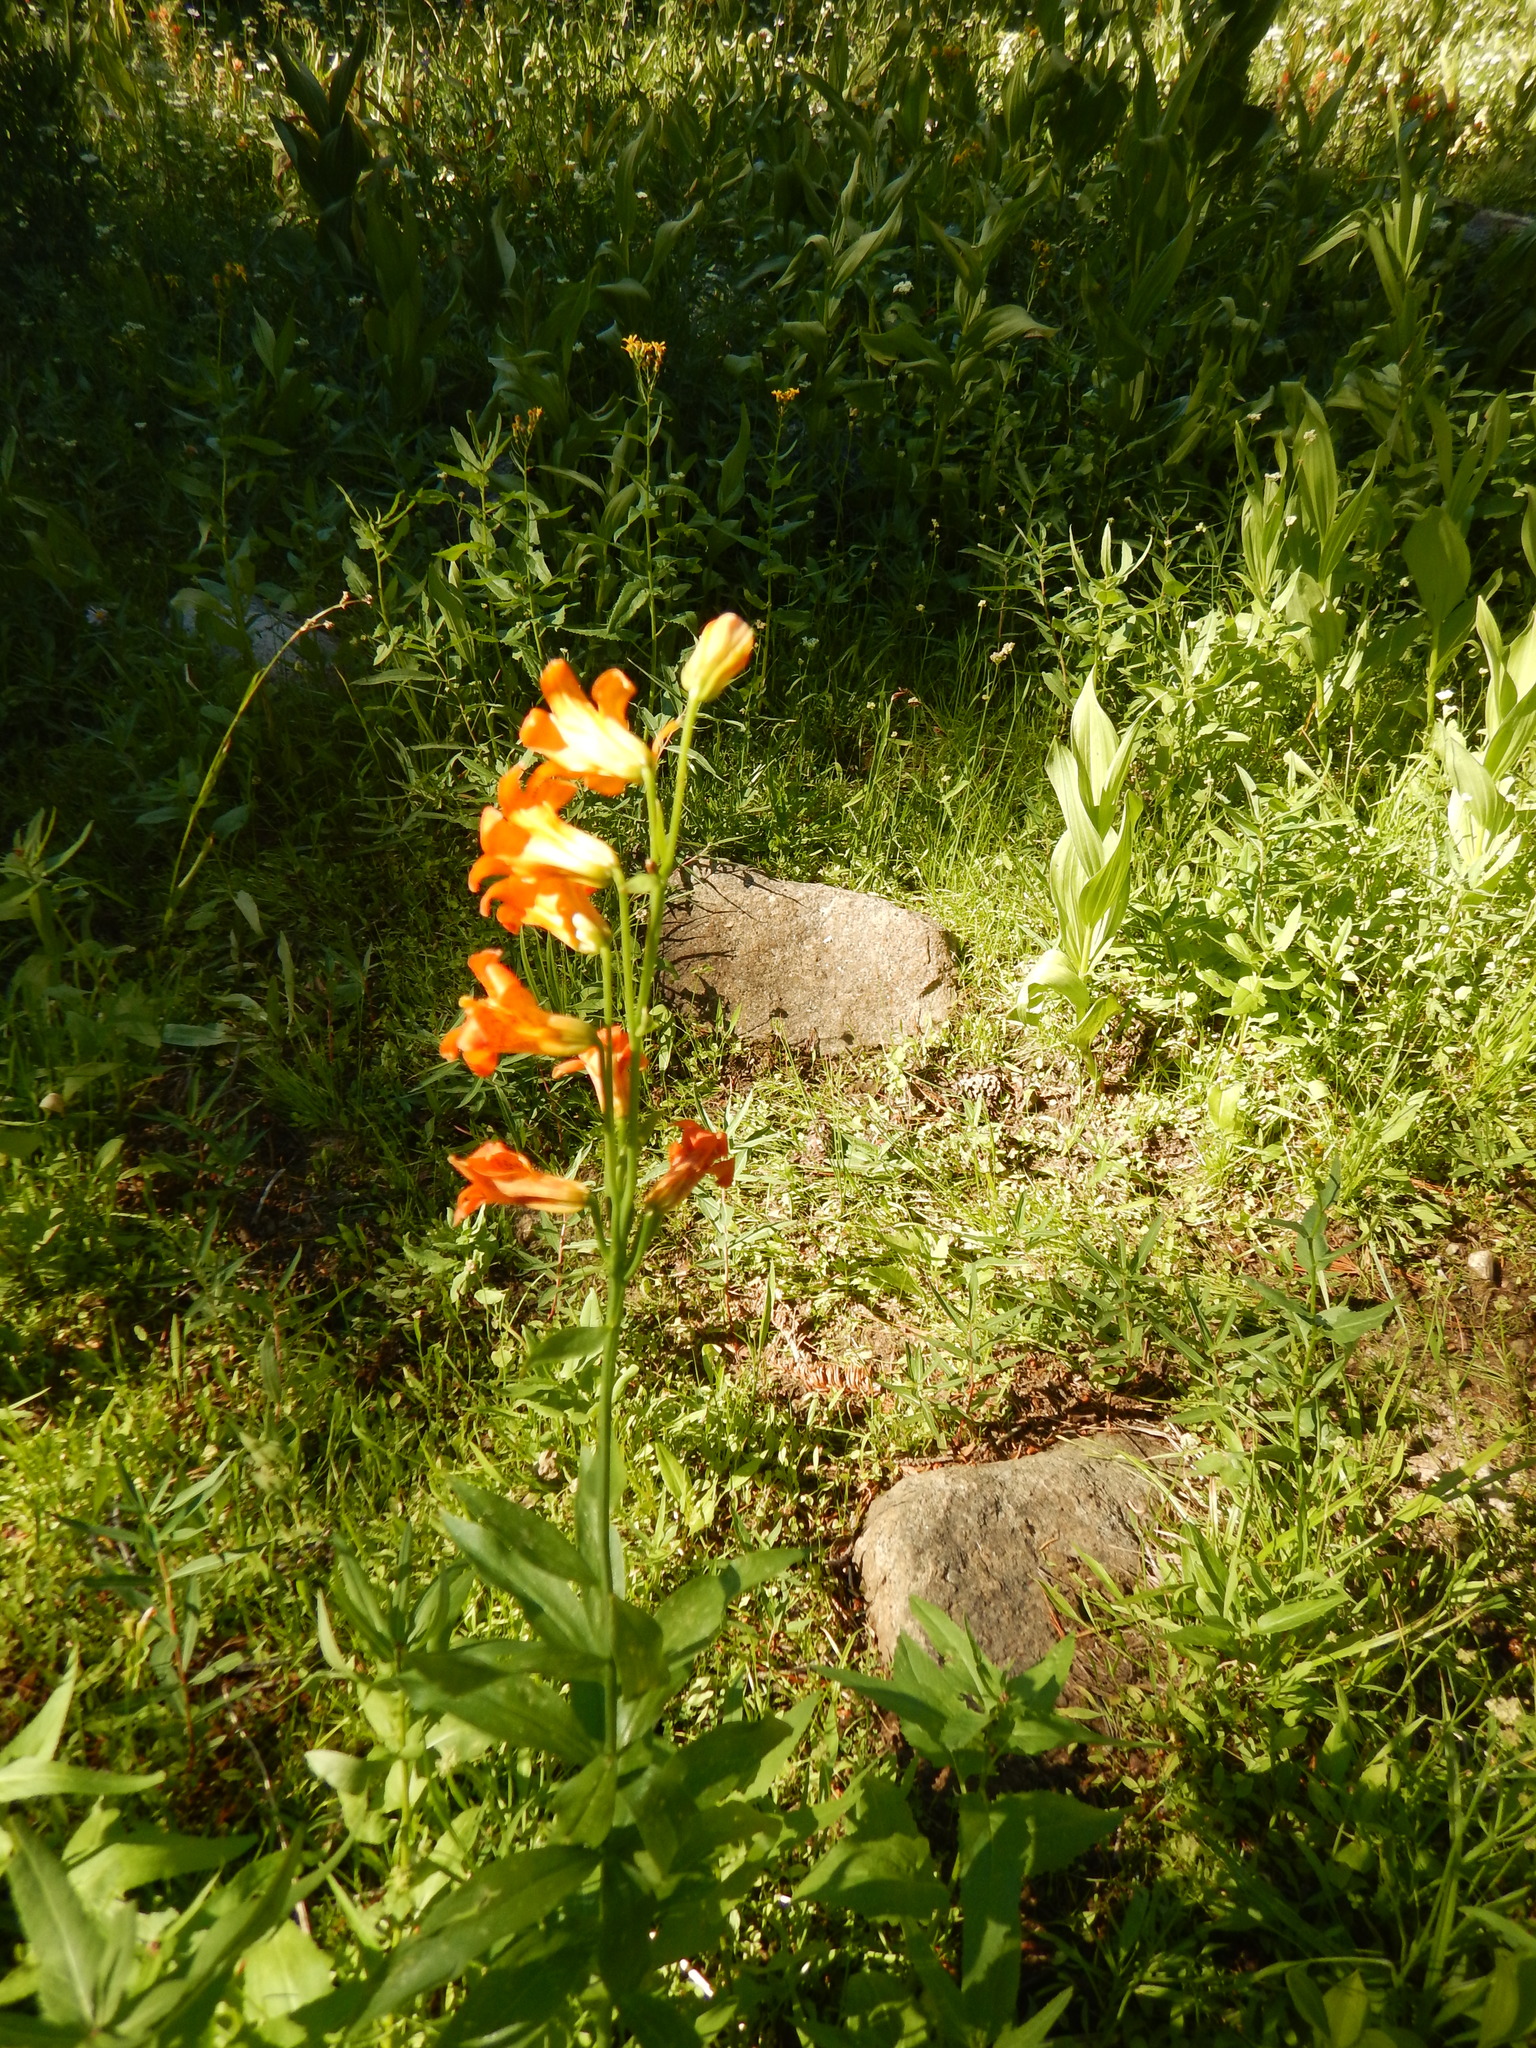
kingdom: Plantae
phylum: Tracheophyta
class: Liliopsida
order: Liliales
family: Liliaceae
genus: Lilium
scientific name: Lilium parvum
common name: Alpine lily
